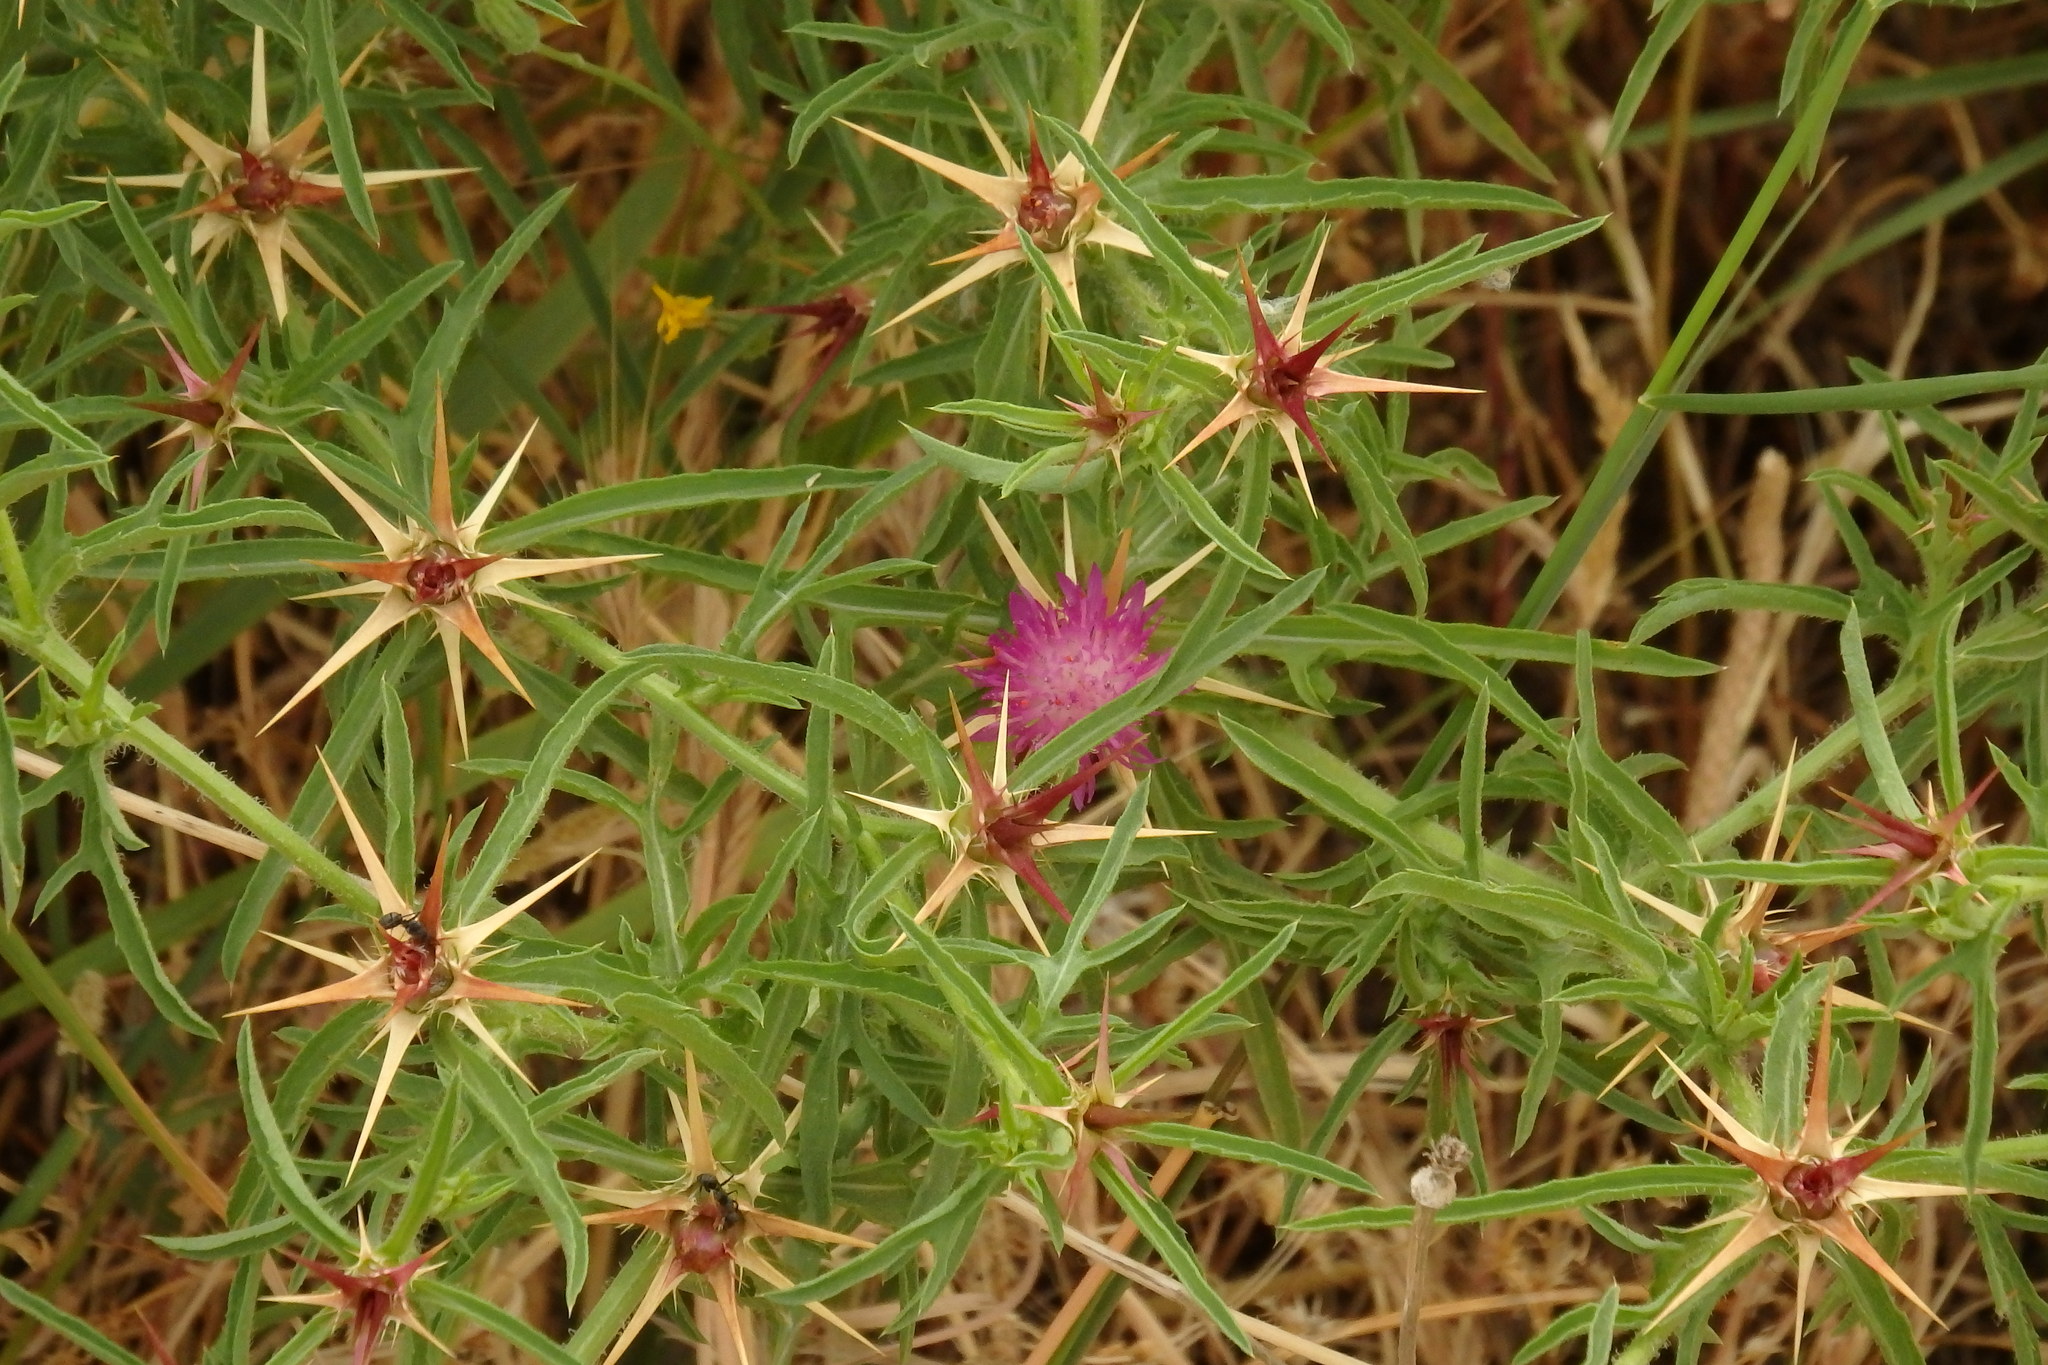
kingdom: Plantae
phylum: Tracheophyta
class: Magnoliopsida
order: Asterales
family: Asteraceae
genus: Centaurea
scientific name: Centaurea calcitrapa
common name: Red star-thistle
